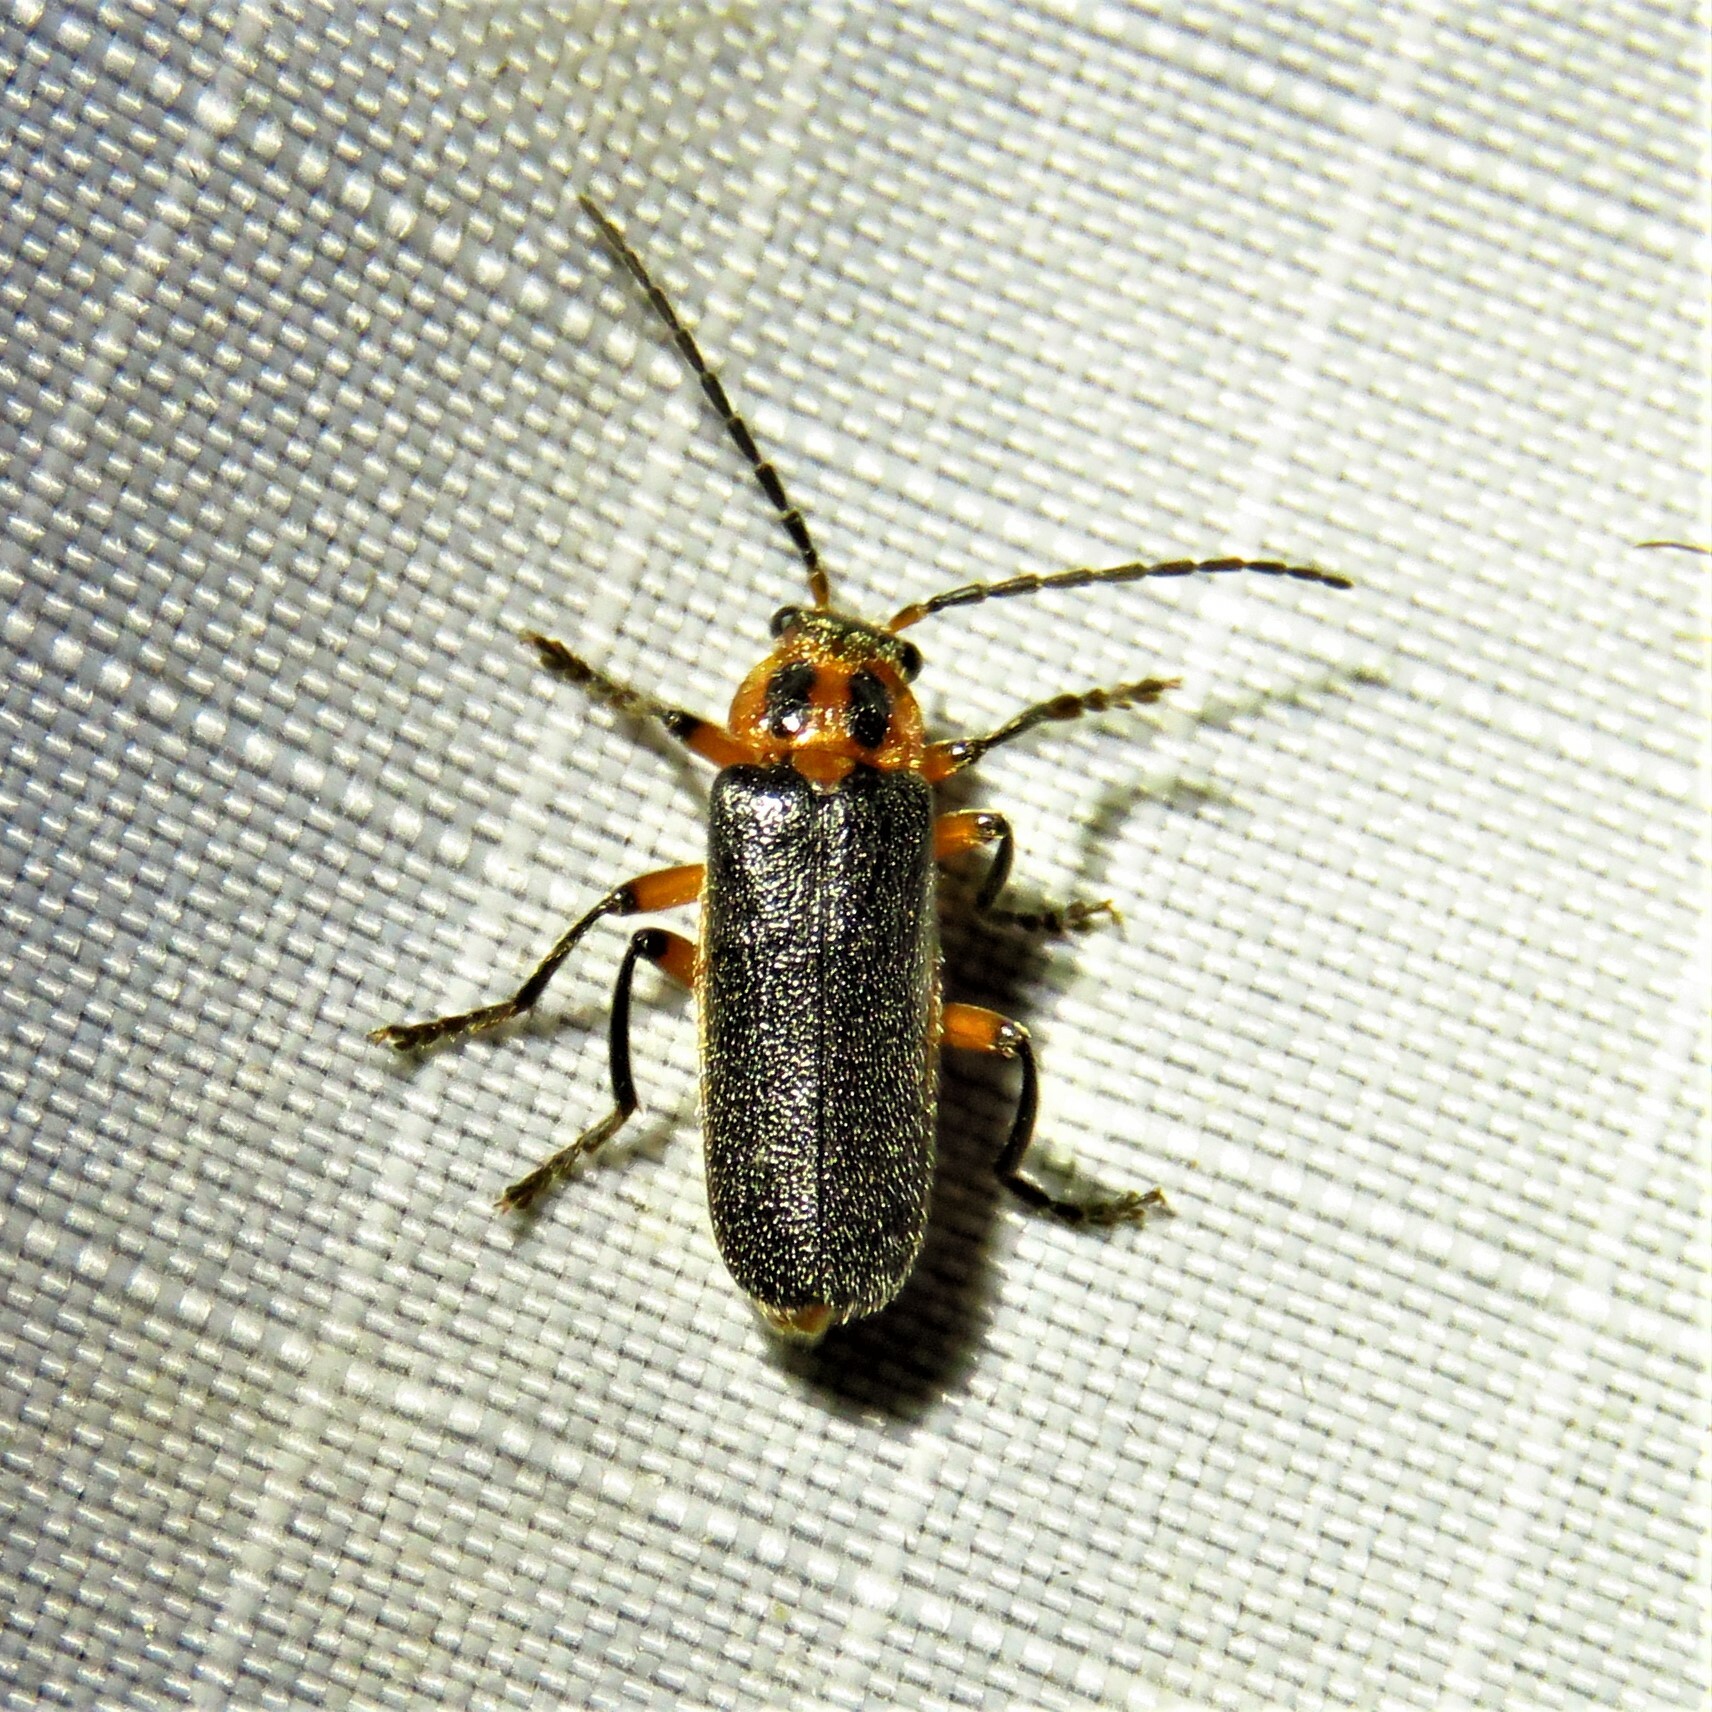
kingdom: Animalia
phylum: Arthropoda
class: Insecta
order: Coleoptera
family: Cantharidae
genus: Atalantycha
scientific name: Atalantycha bilineata
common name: Two-lined leatherwing
